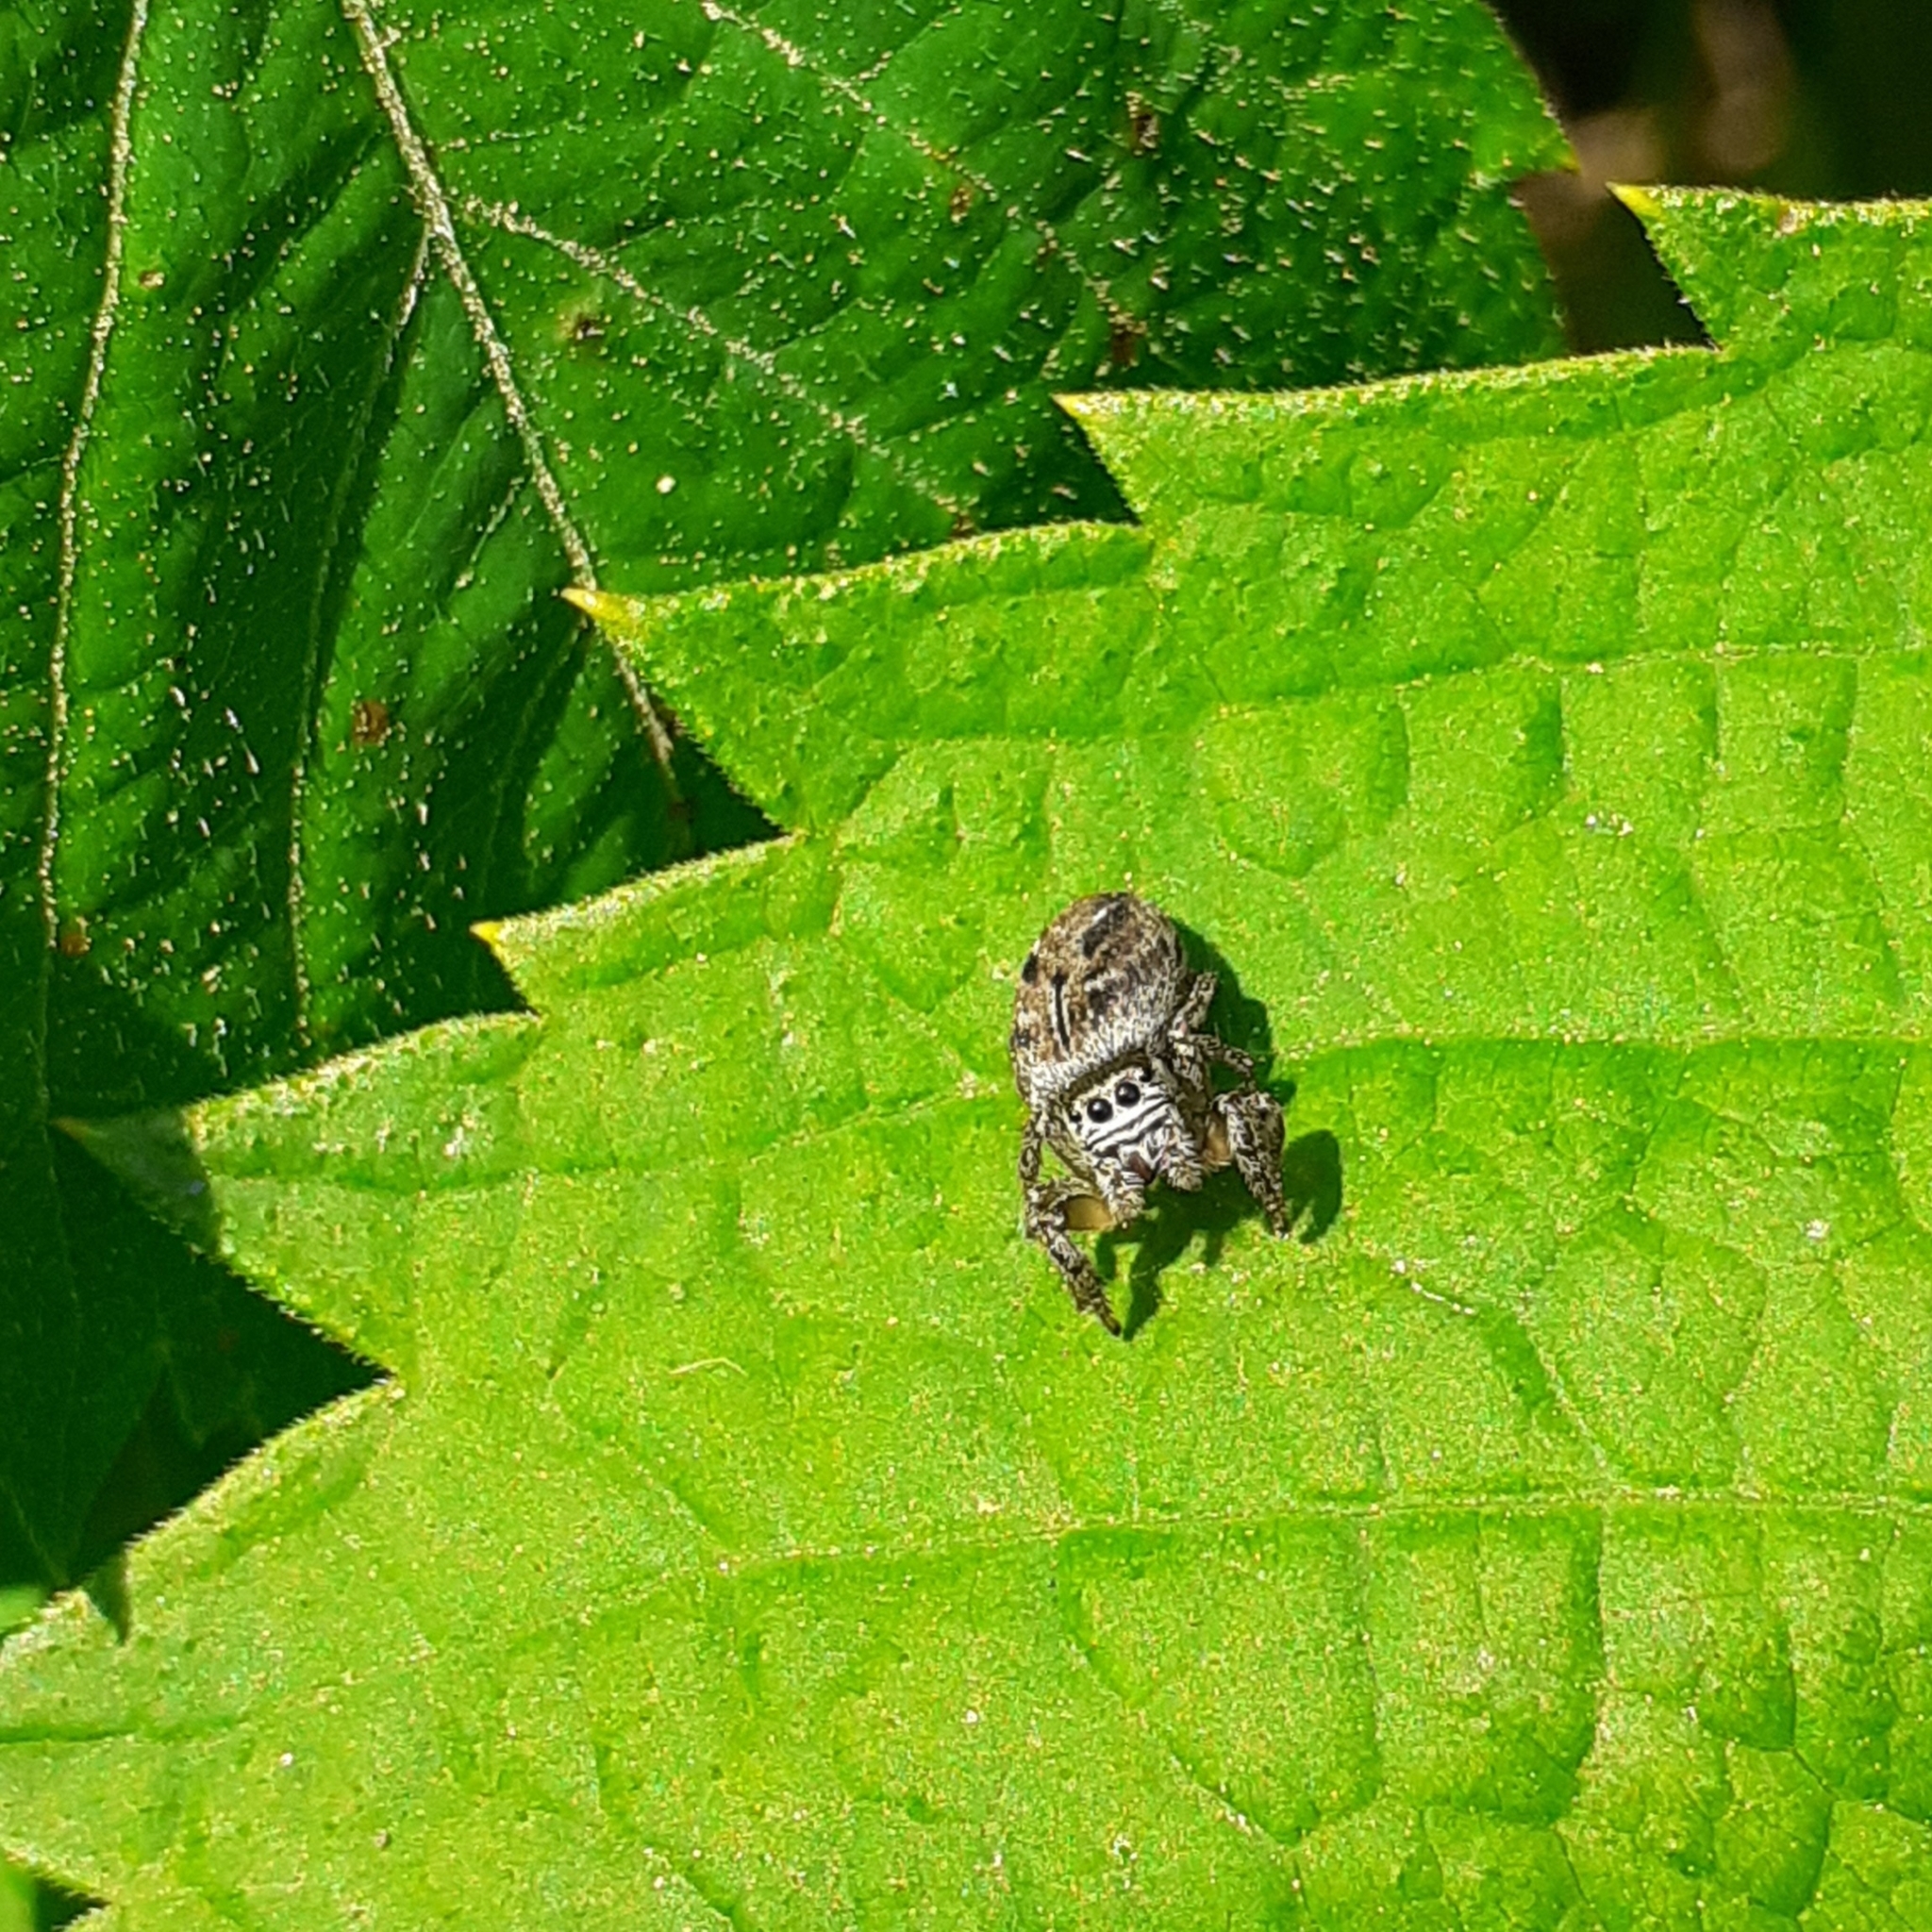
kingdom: Animalia
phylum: Arthropoda
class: Arachnida
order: Araneae
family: Salticidae
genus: Evarcha
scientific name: Evarcha arcuata
